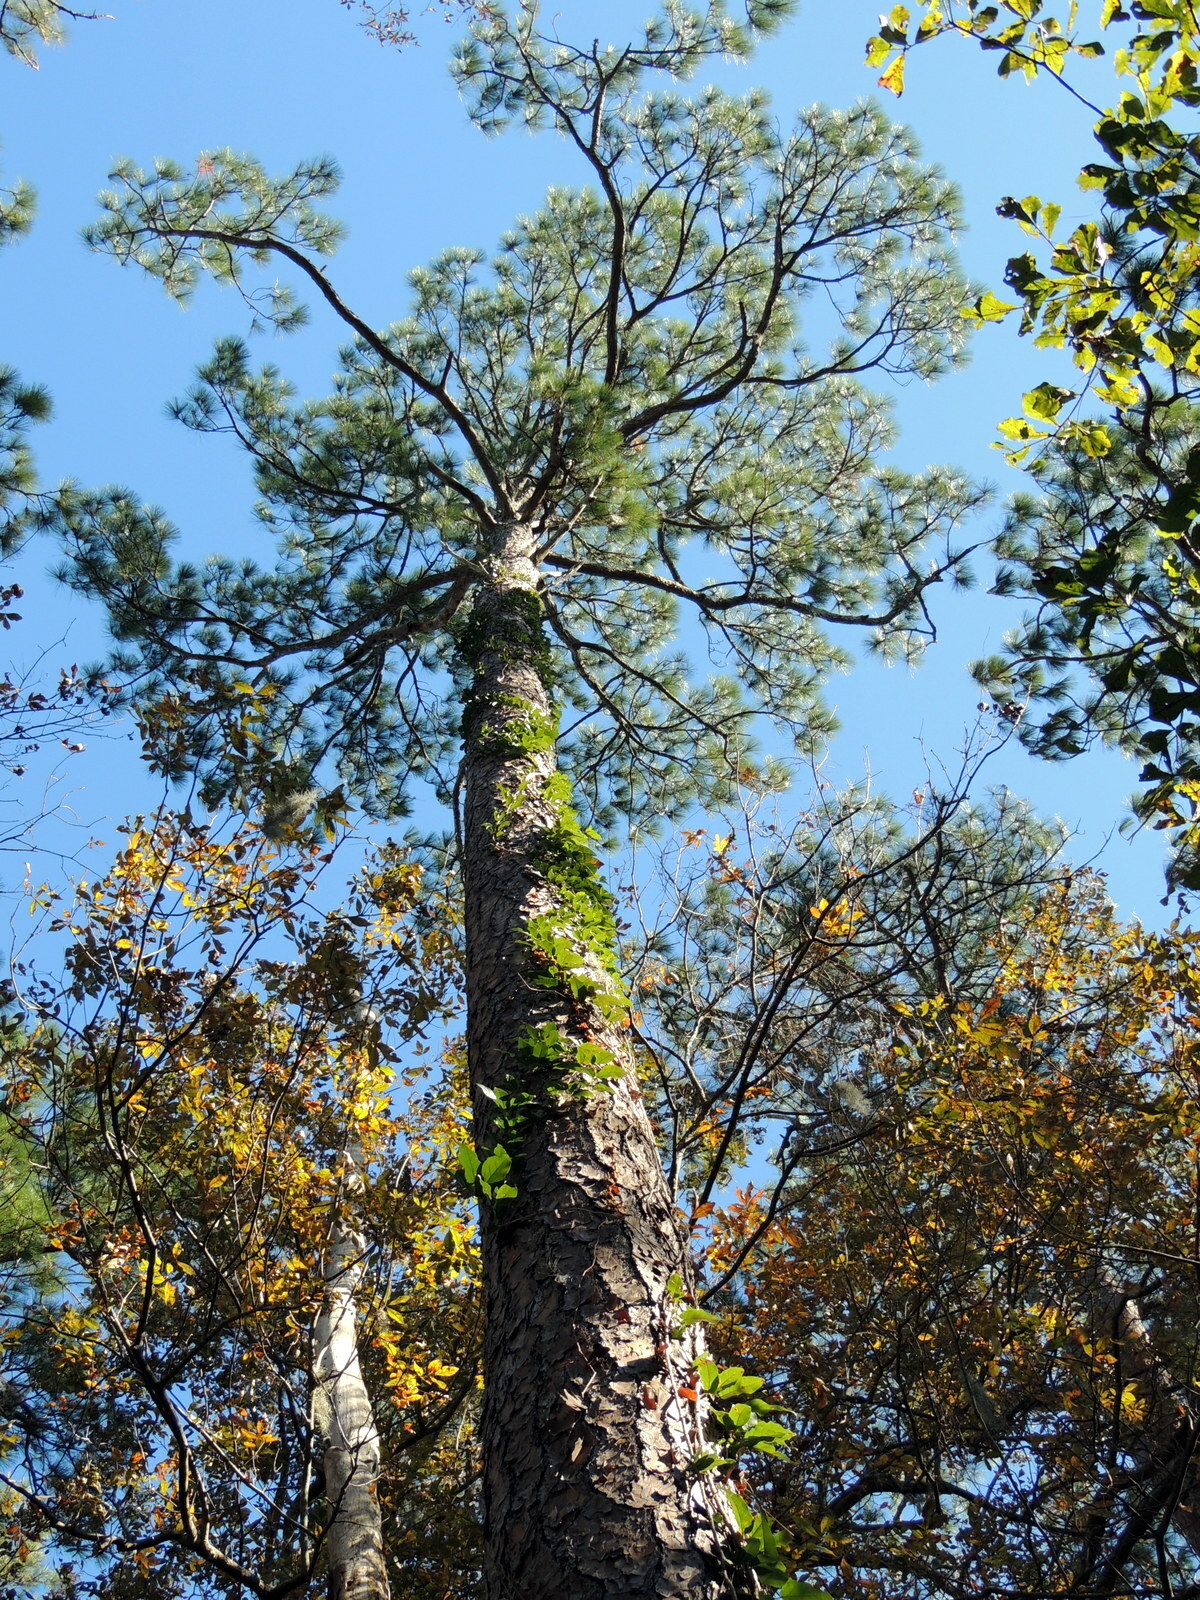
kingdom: Plantae
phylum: Tracheophyta
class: Pinopsida
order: Pinales
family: Pinaceae
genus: Pinus
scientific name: Pinus elliottii
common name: Slash pine
